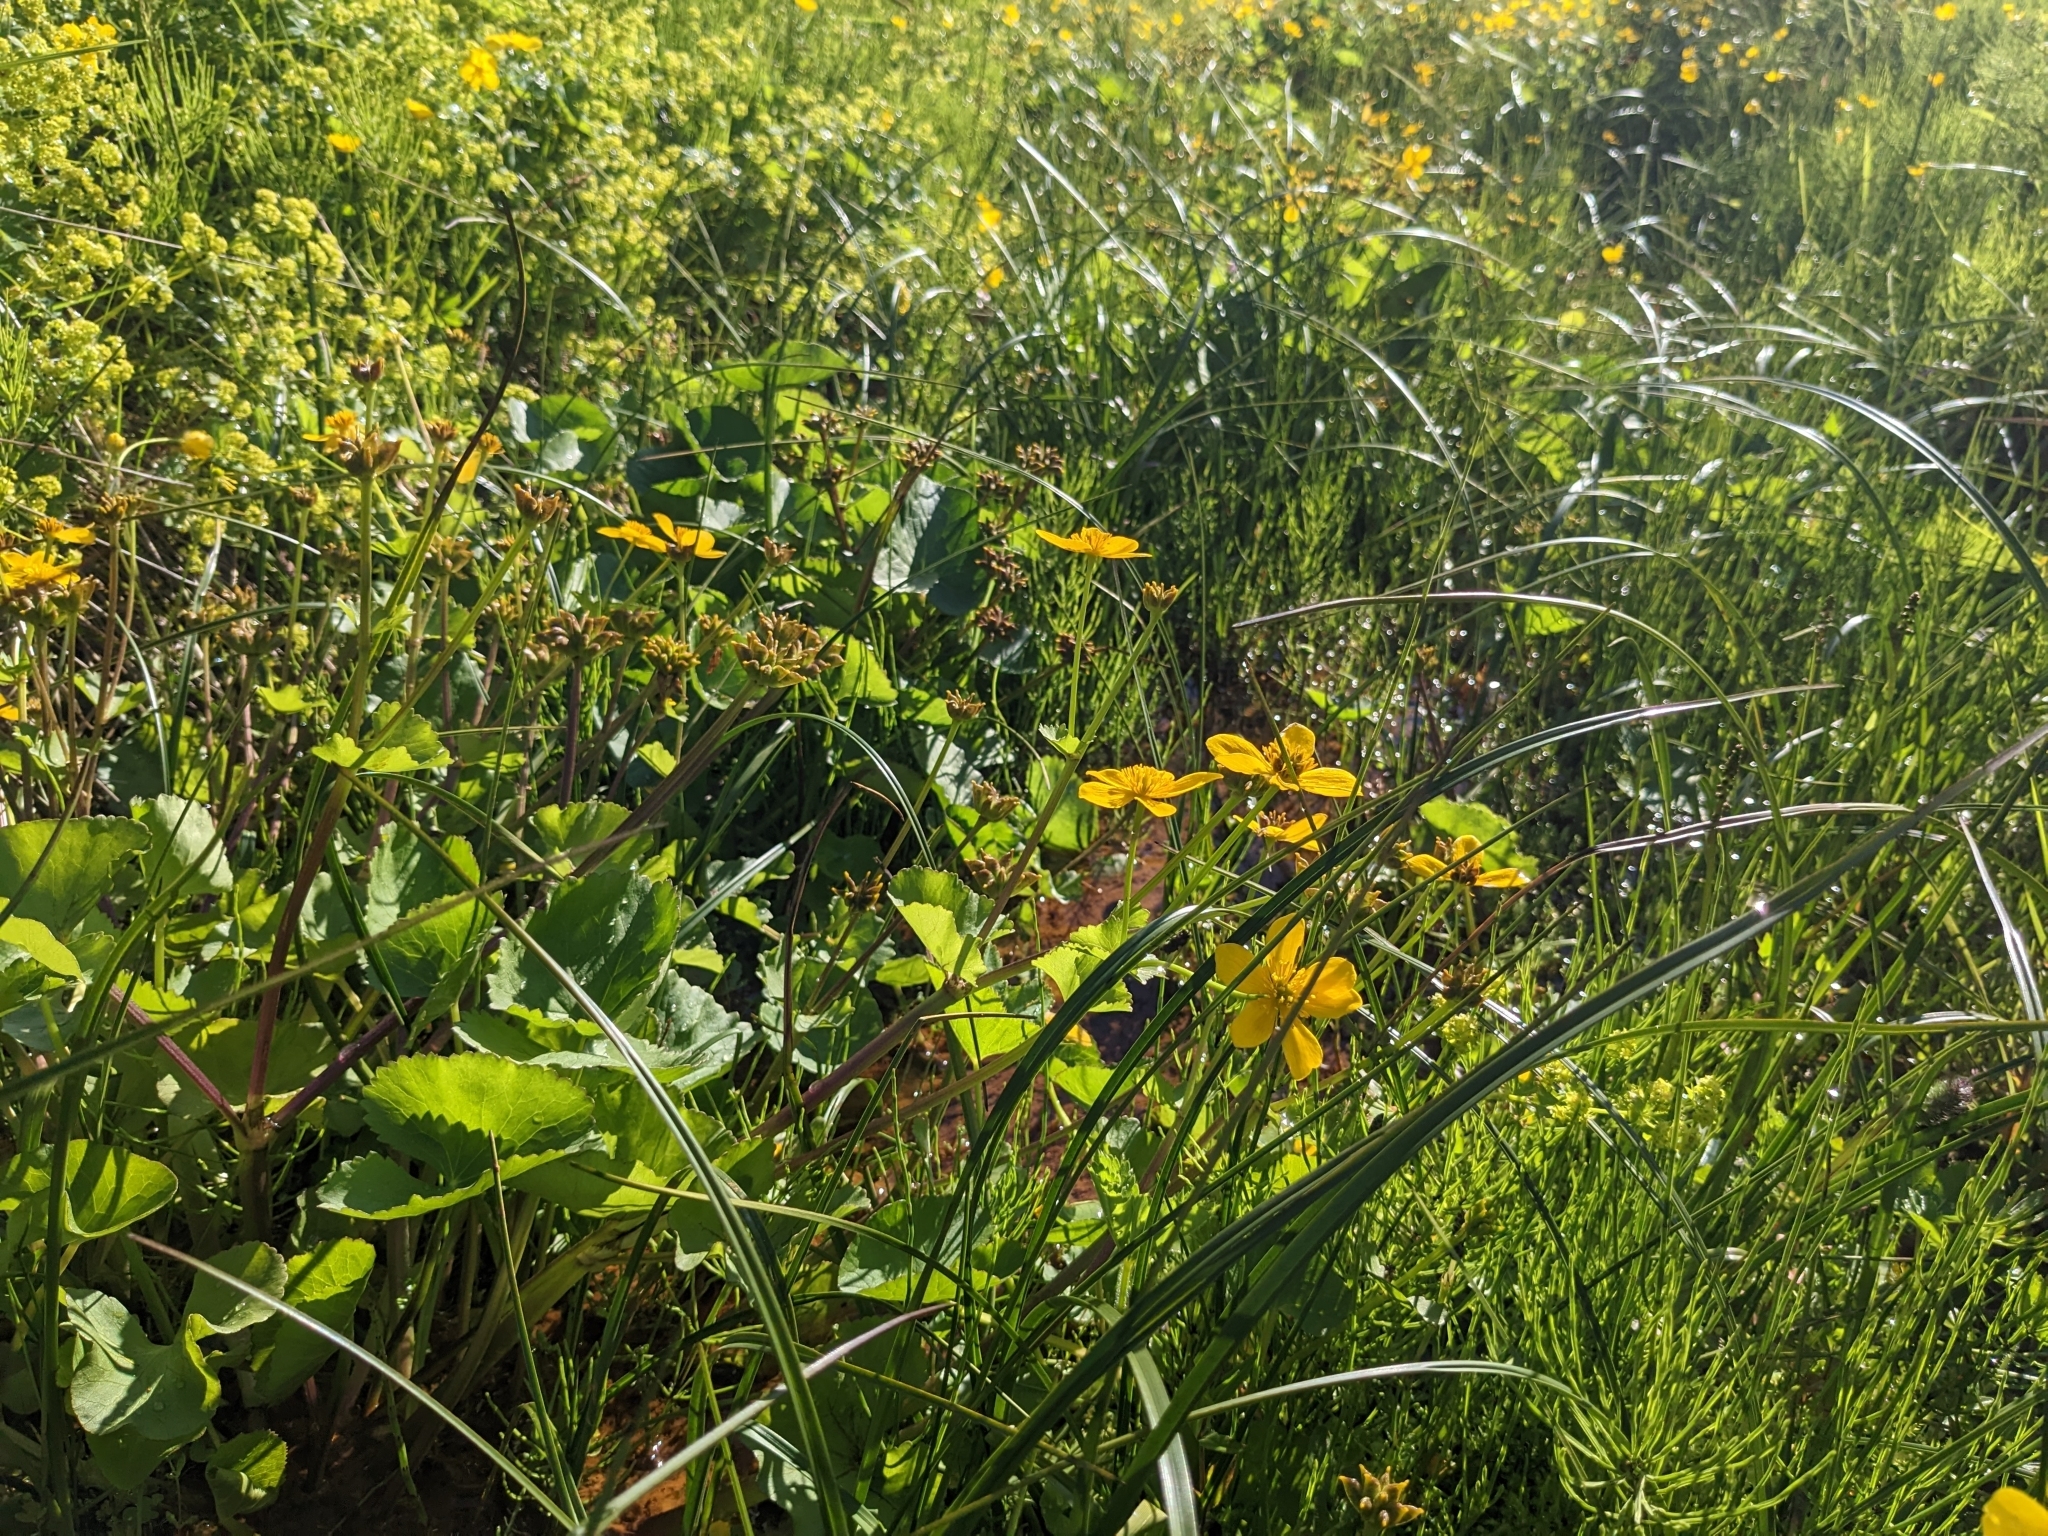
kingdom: Plantae
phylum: Tracheophyta
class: Magnoliopsida
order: Ranunculales
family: Ranunculaceae
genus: Caltha
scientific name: Caltha palustris
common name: Marsh marigold
